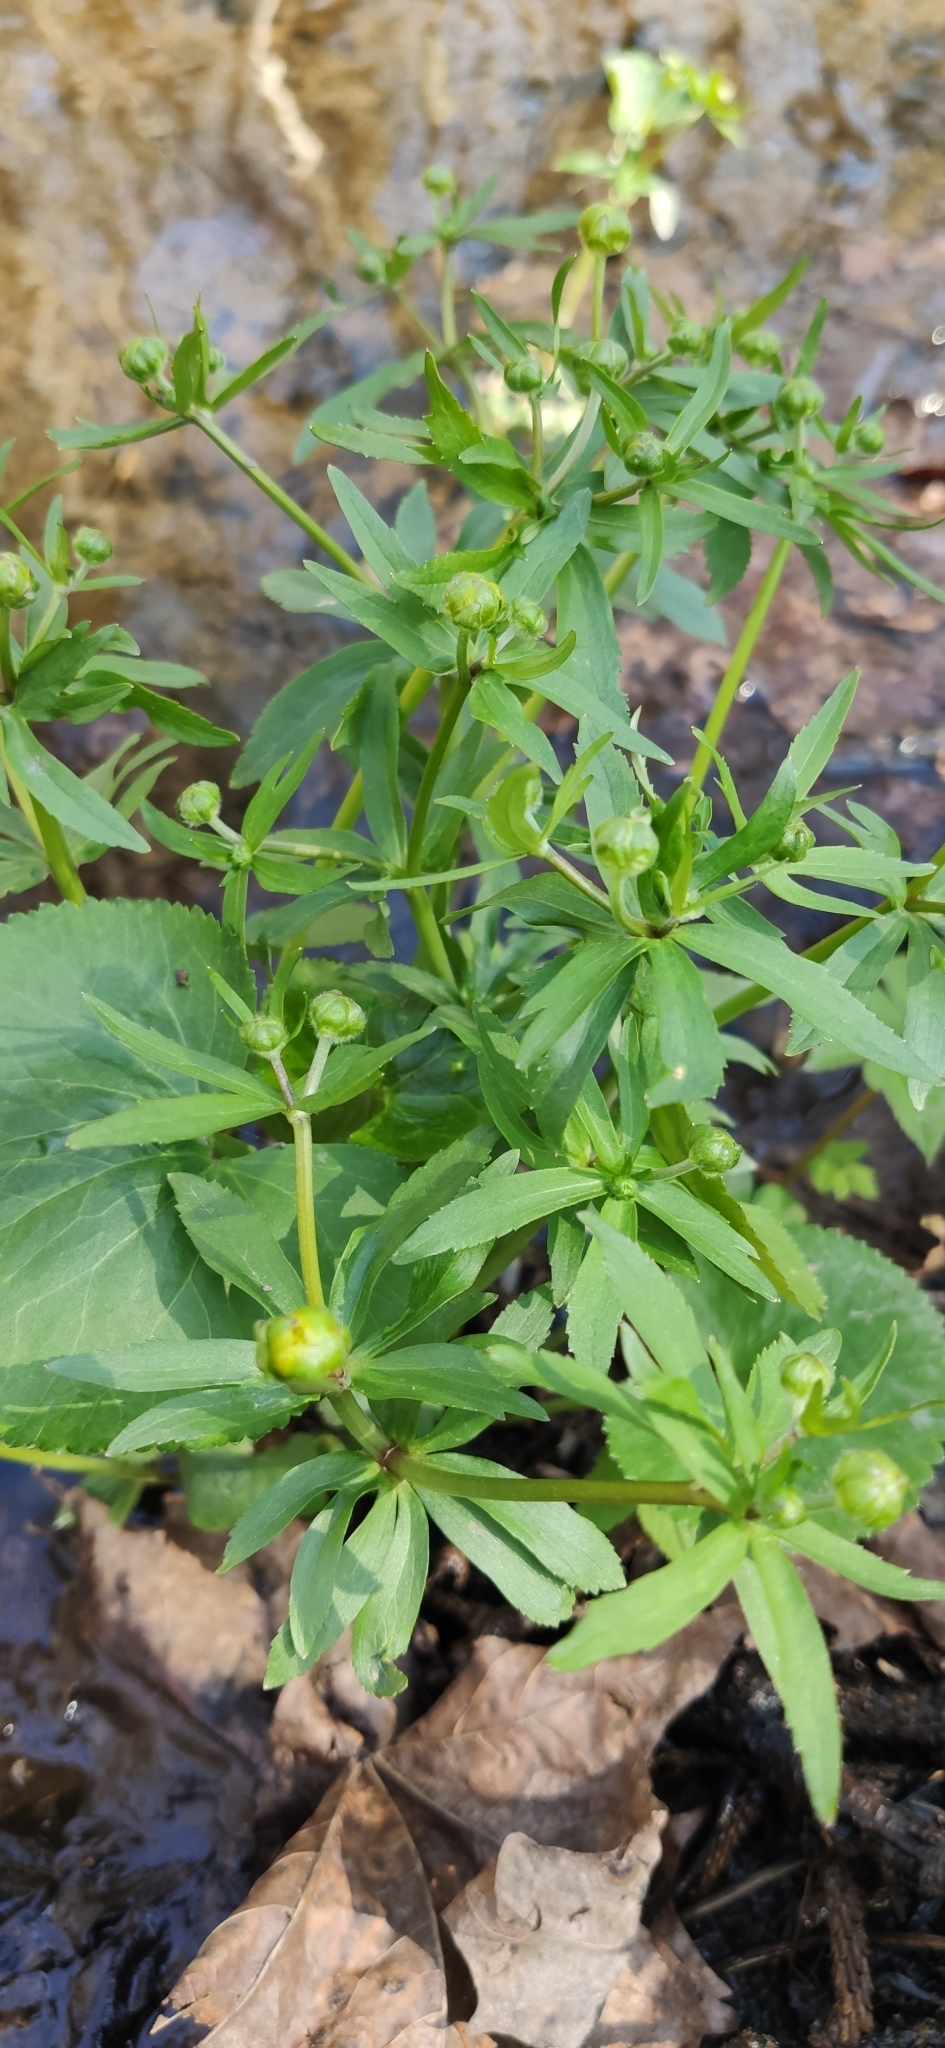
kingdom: Plantae
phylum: Tracheophyta
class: Magnoliopsida
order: Ranunculales
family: Ranunculaceae
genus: Ranunculus
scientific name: Ranunculus cassubicus
